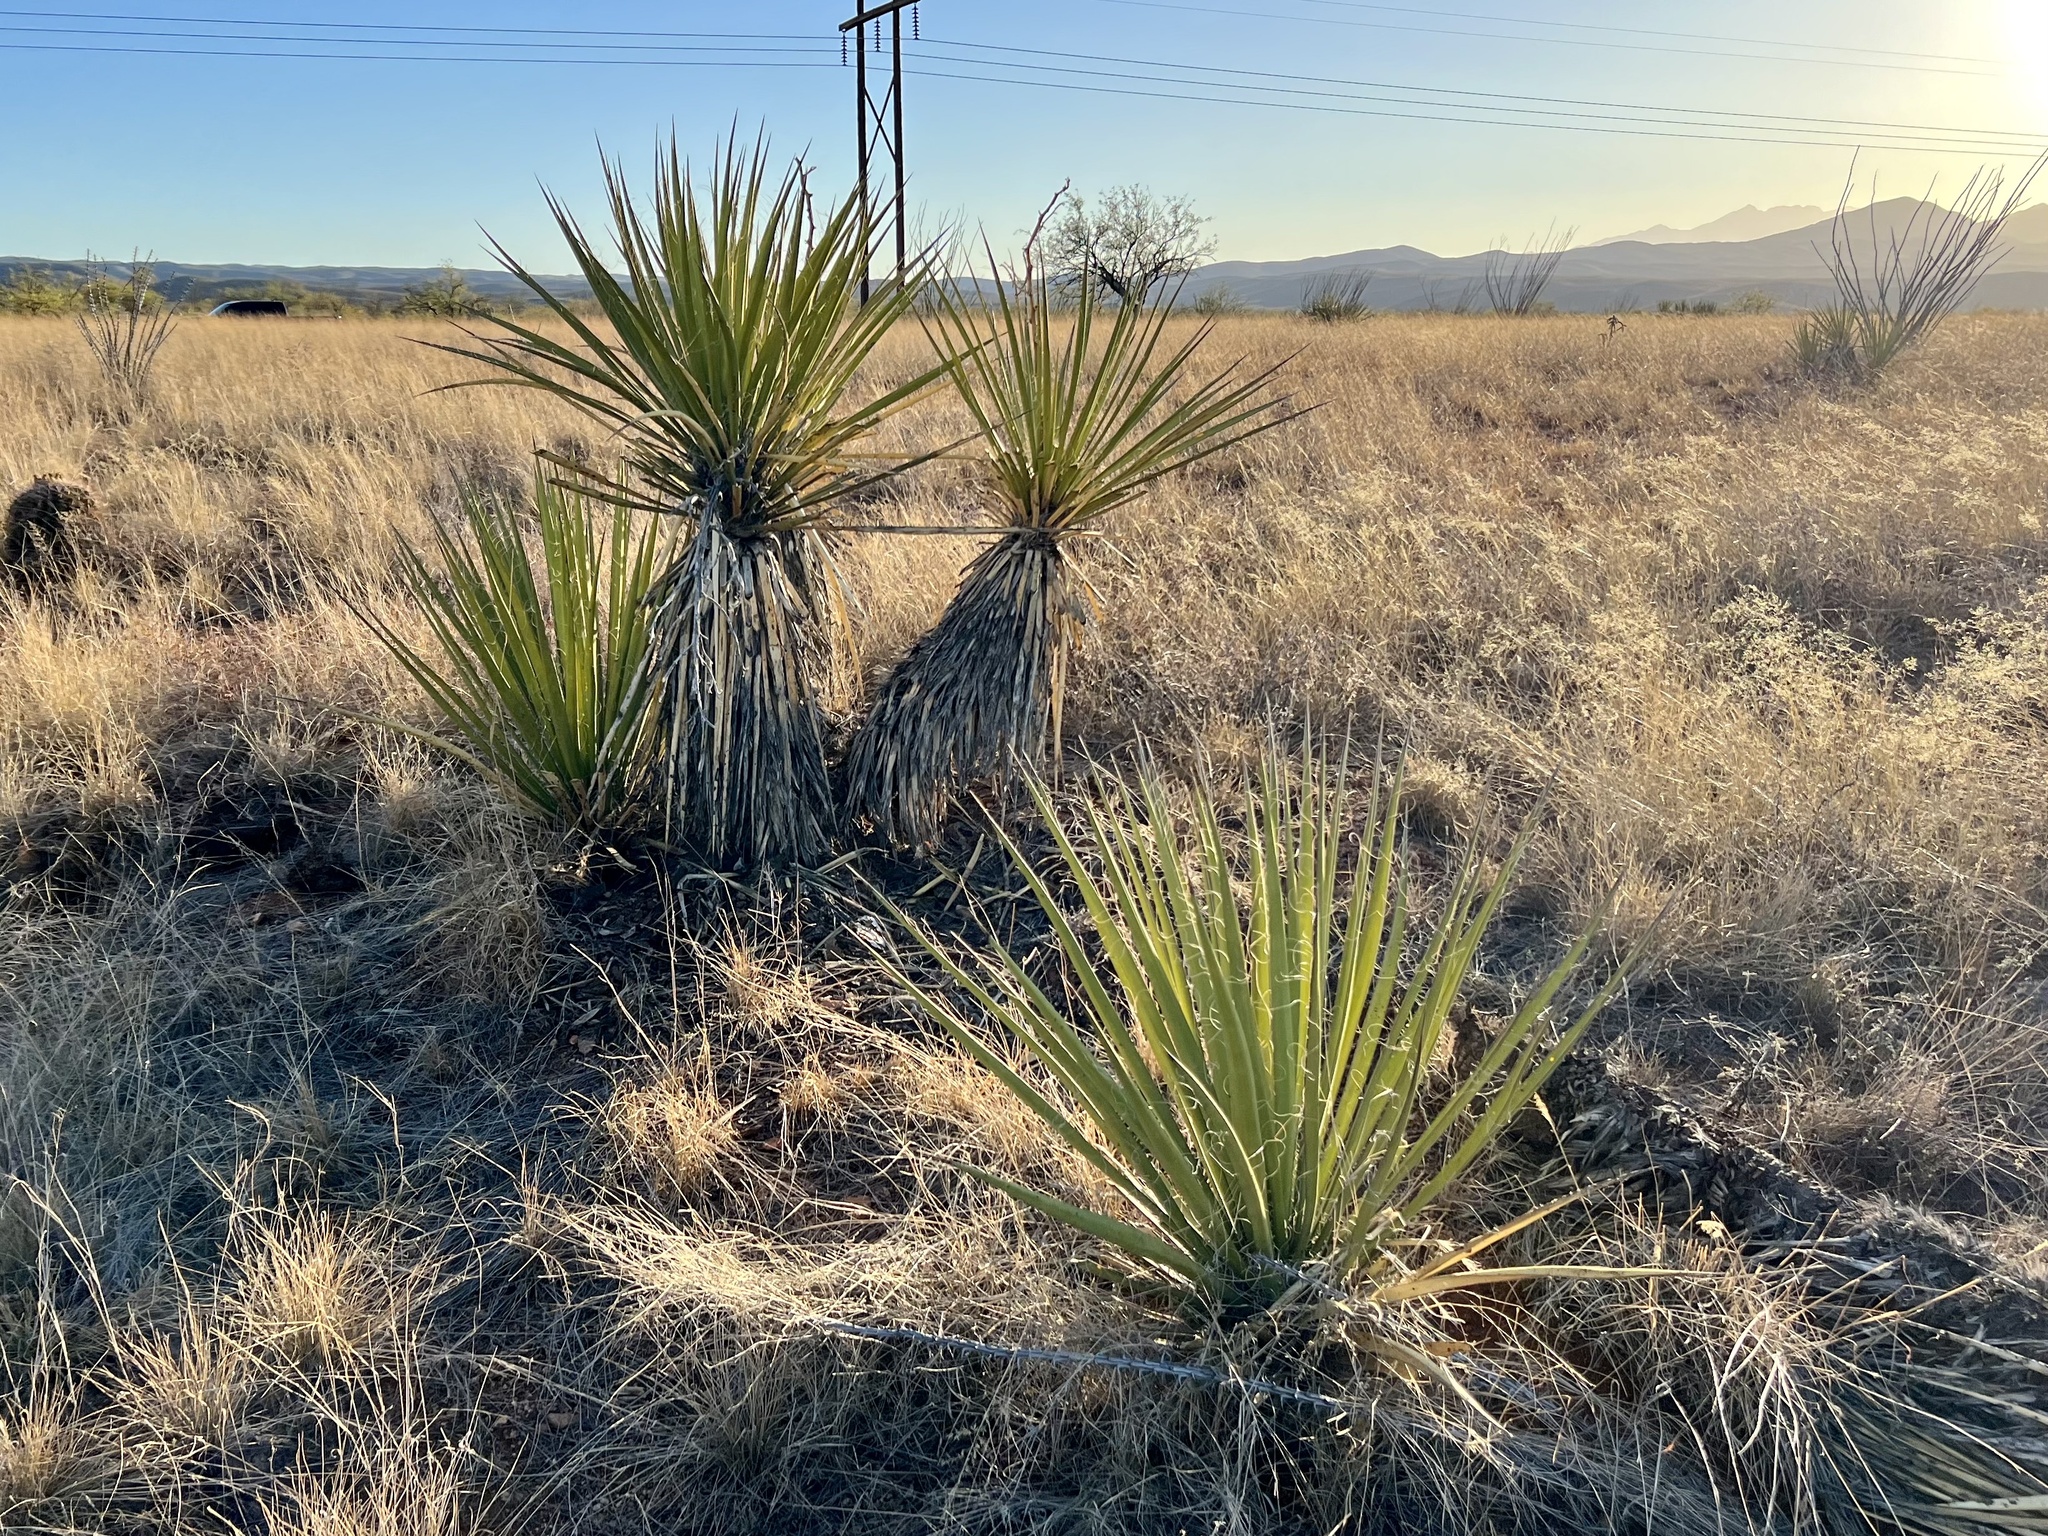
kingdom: Plantae
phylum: Tracheophyta
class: Liliopsida
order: Asparagales
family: Asparagaceae
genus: Yucca
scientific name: Yucca baccata
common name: Banana yucca
